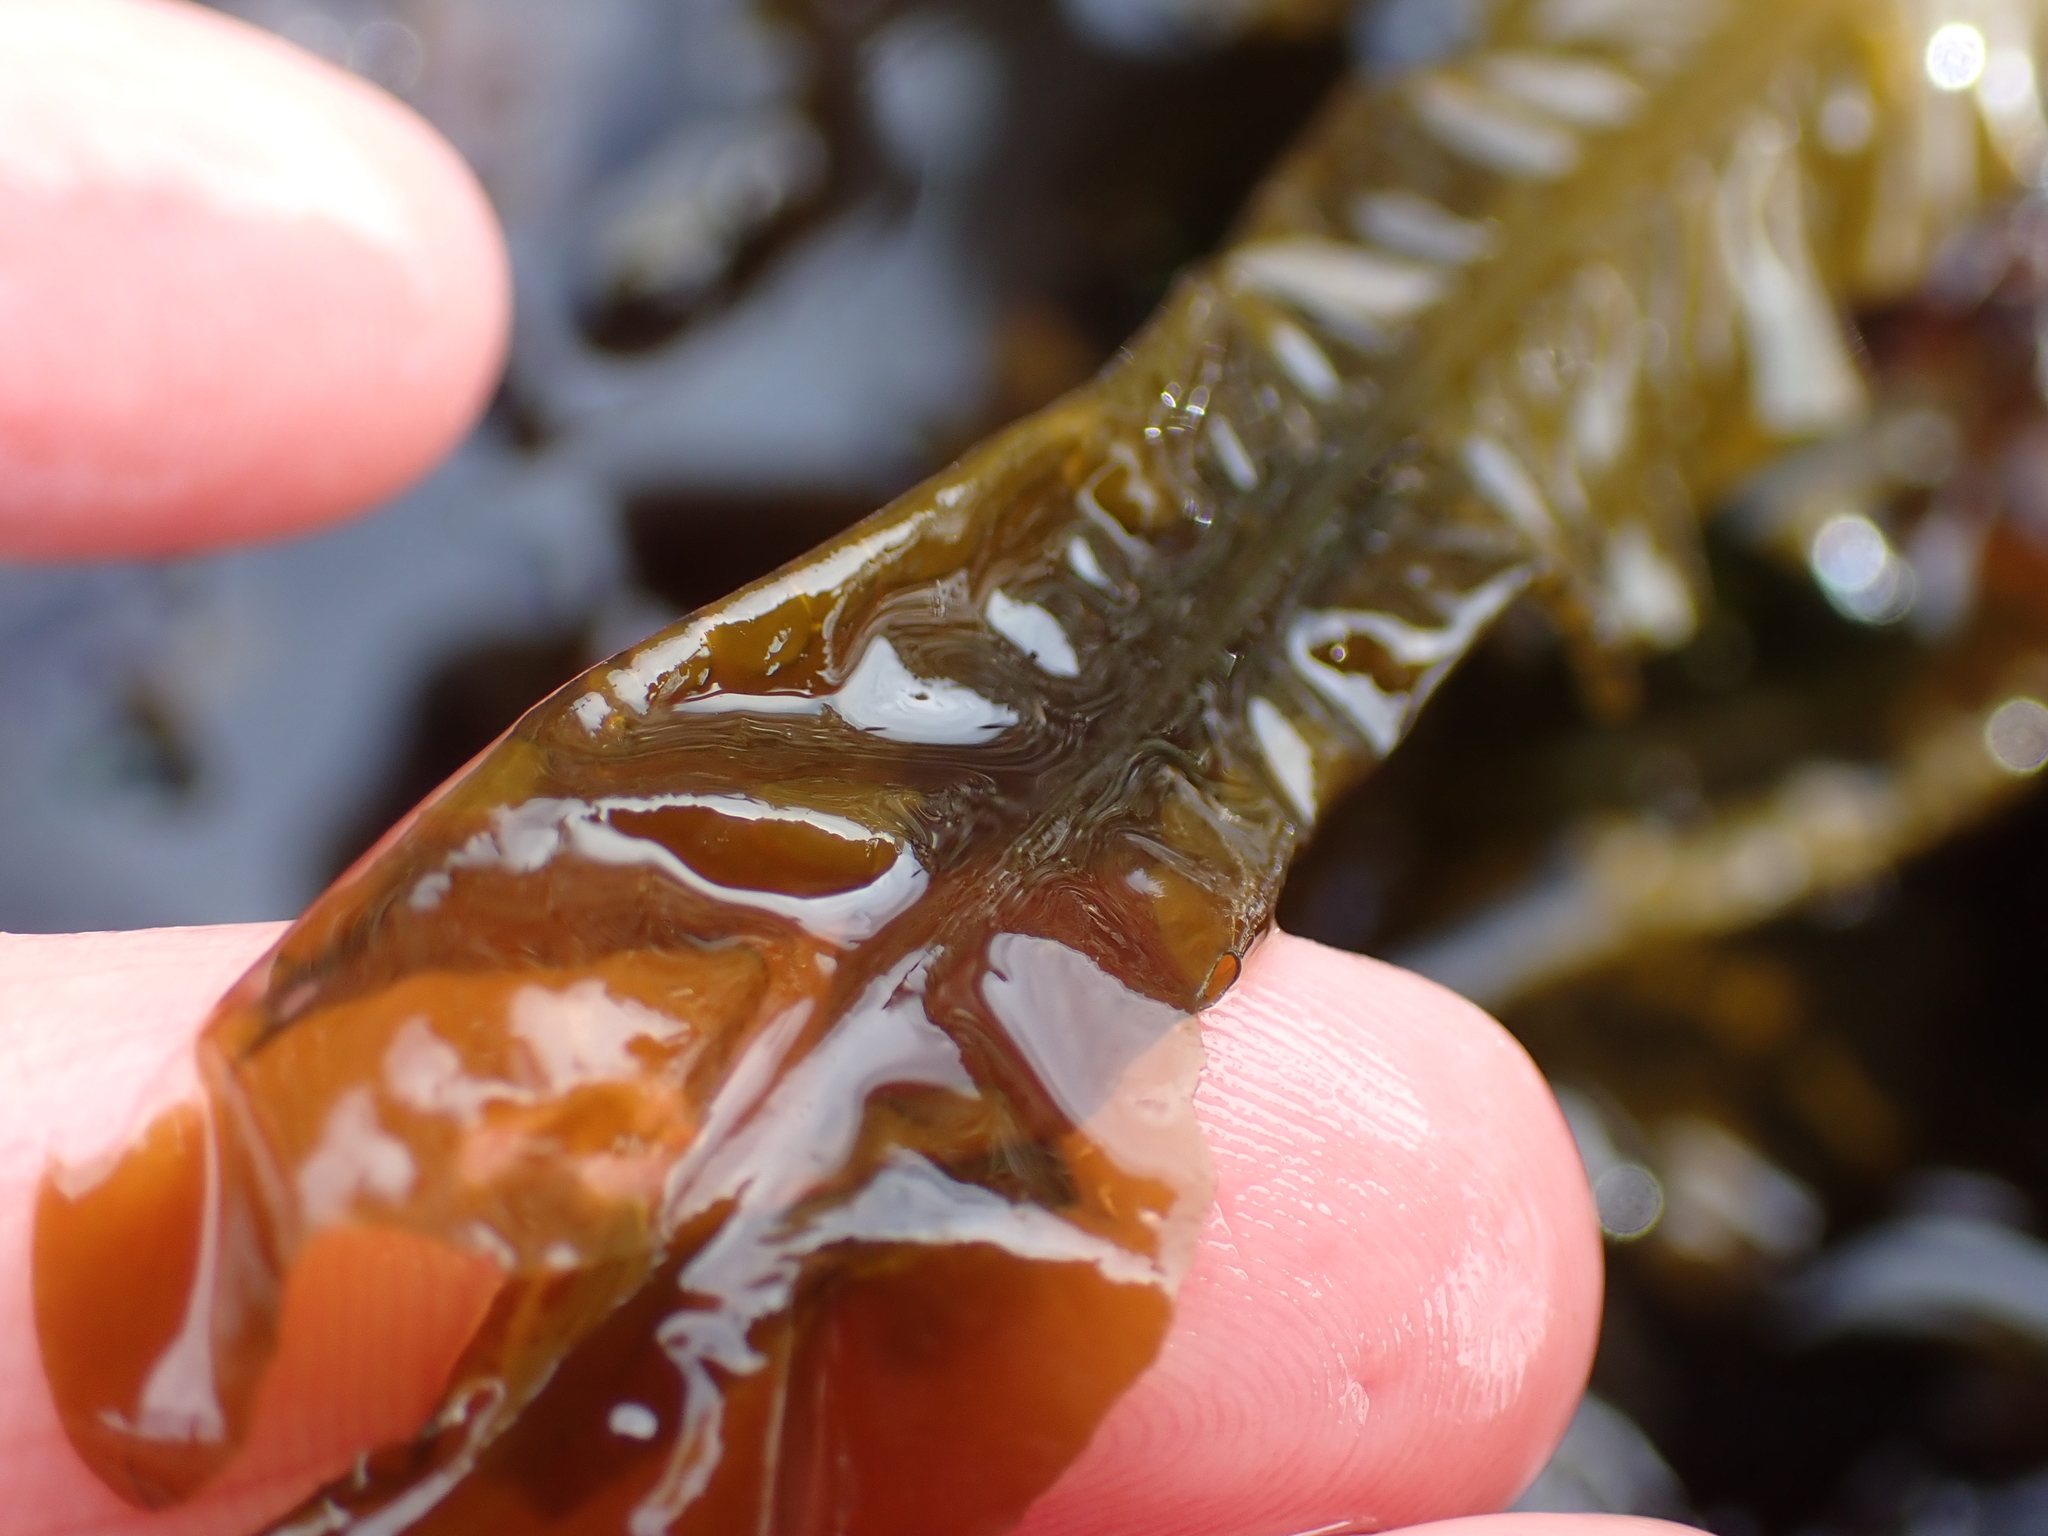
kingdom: Chromista
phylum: Ochrophyta
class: Phaeophyceae
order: Laminariales
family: Alariaceae
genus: Alaria
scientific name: Alaria marginata
